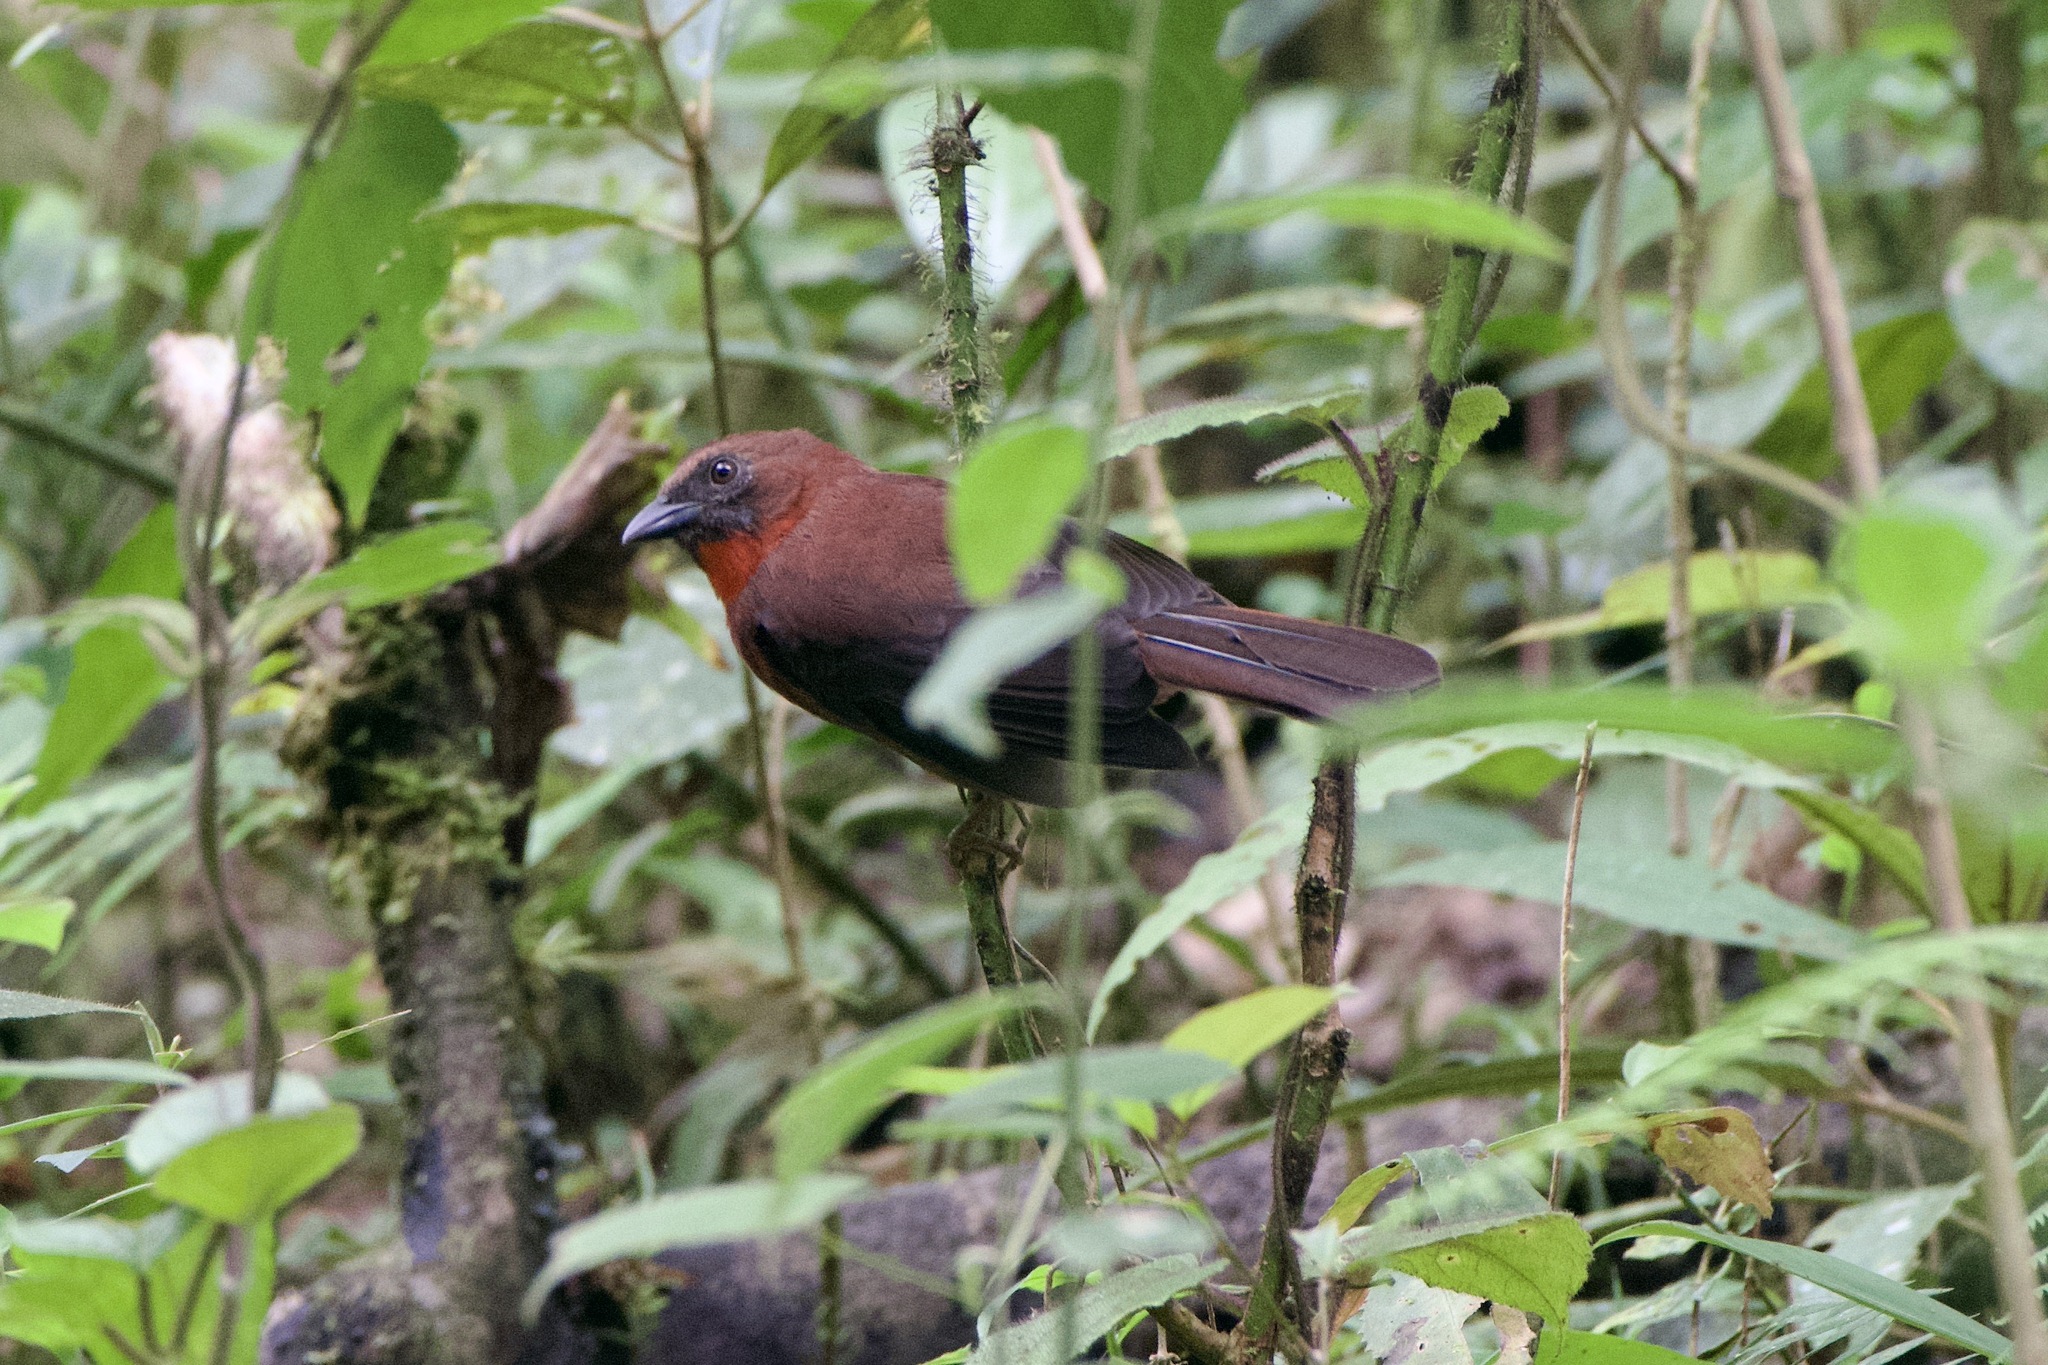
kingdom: Animalia
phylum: Chordata
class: Aves
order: Passeriformes
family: Cardinalidae
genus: Habia
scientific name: Habia fuscicauda
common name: Red-throated ant-tanager
